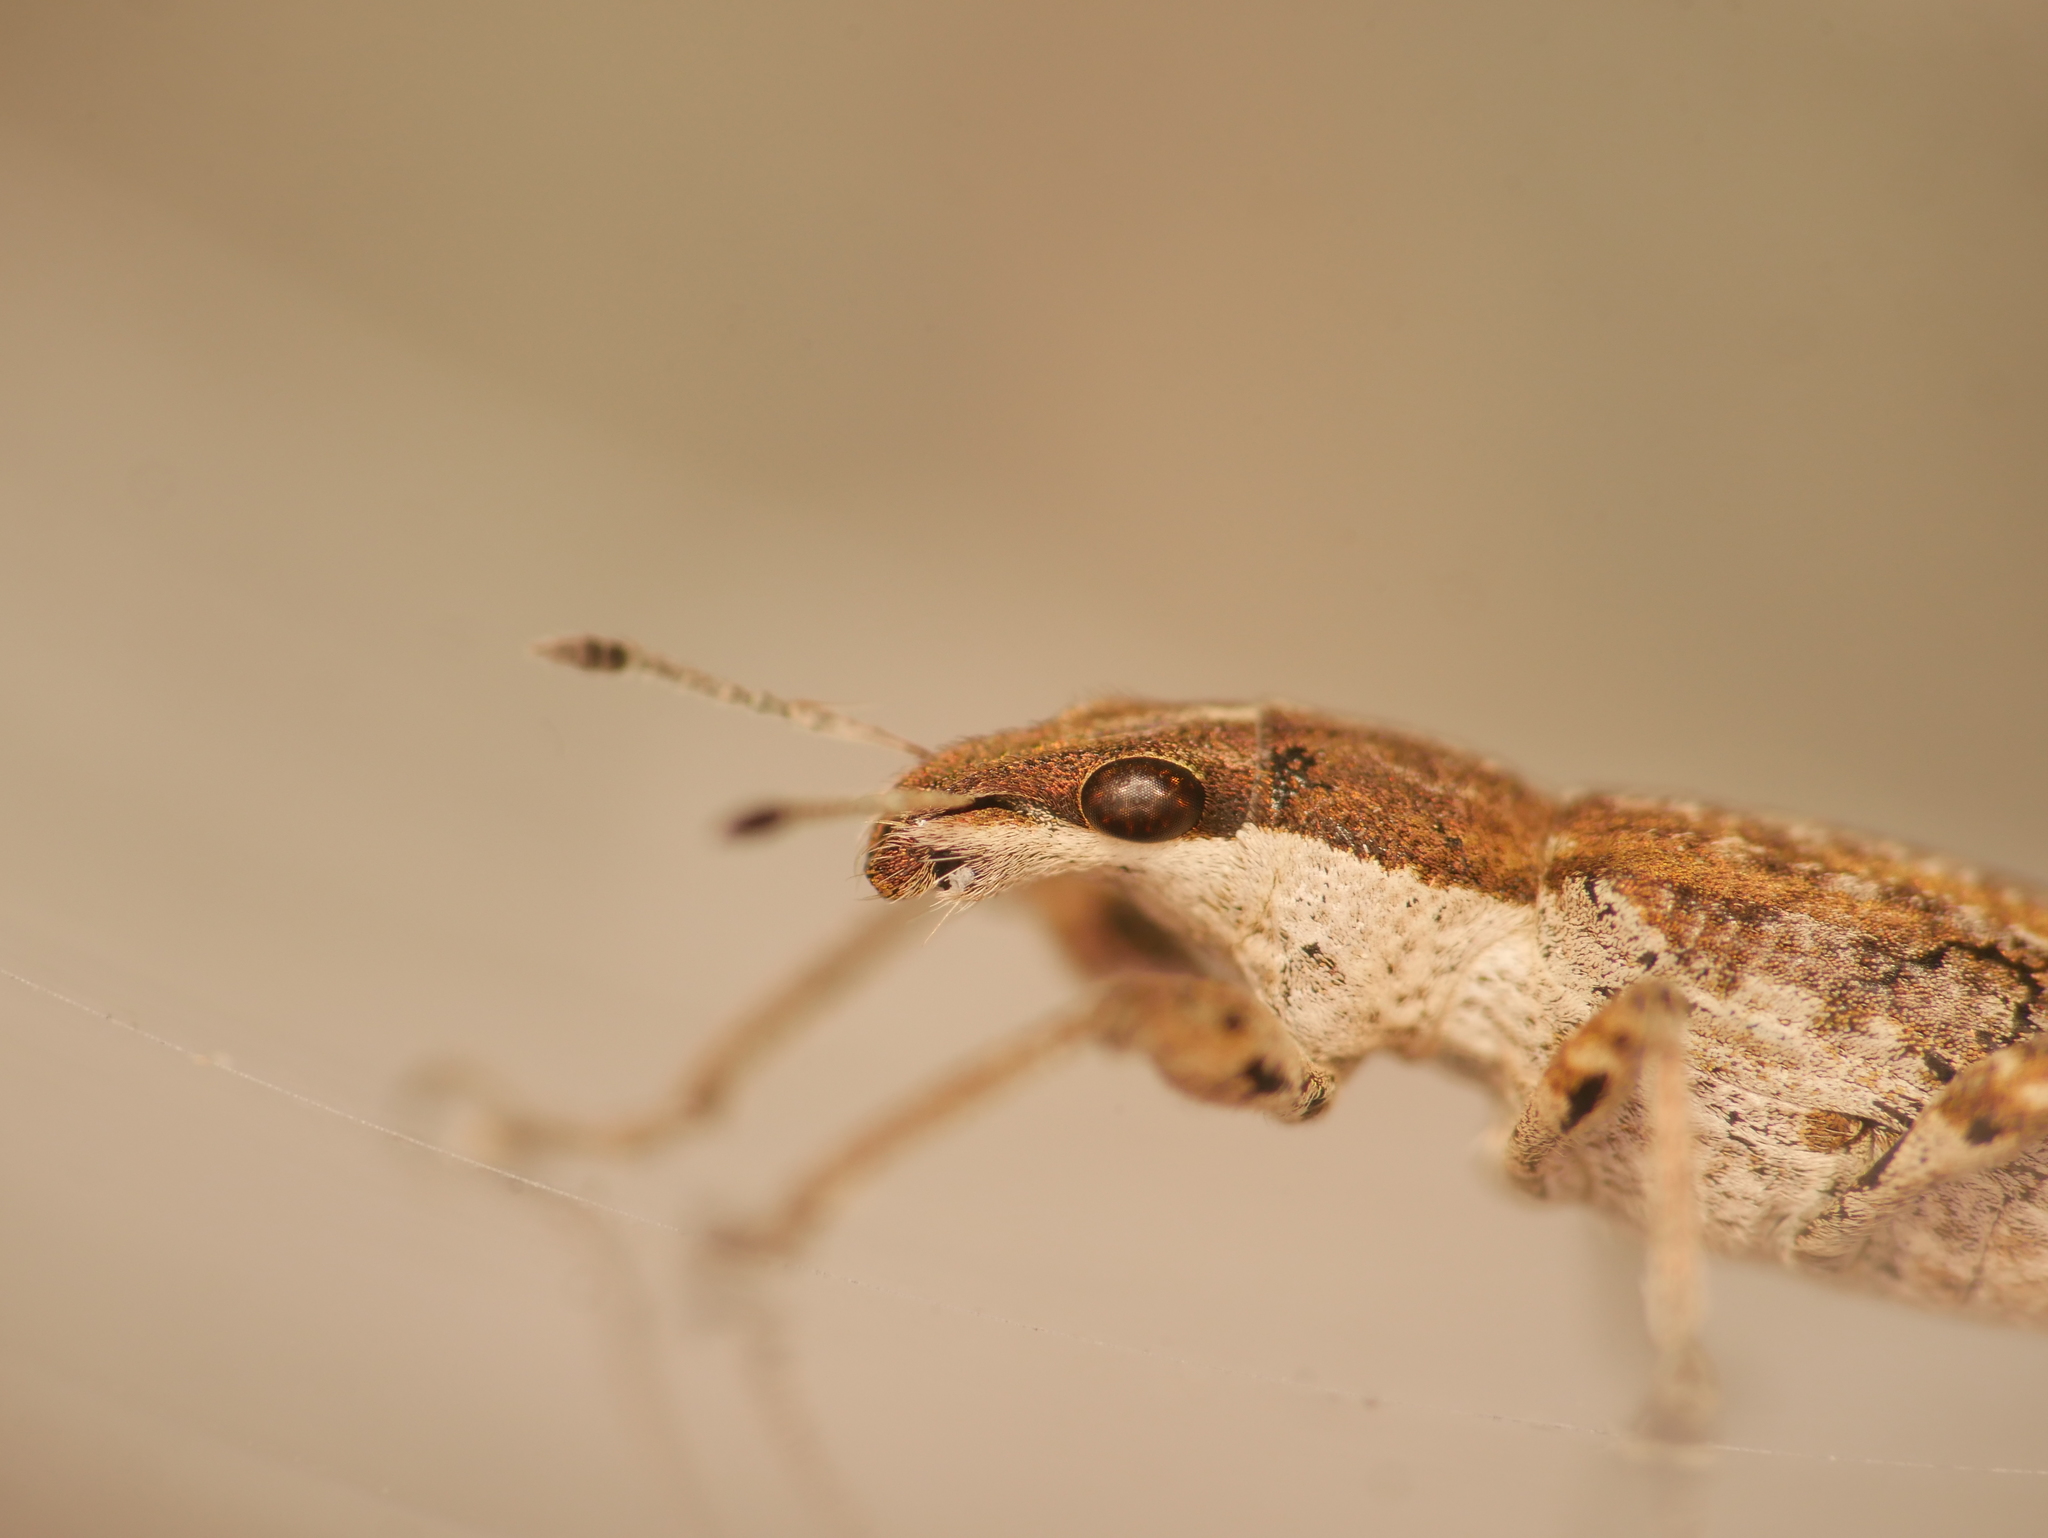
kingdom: Animalia
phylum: Arthropoda
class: Insecta
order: Coleoptera
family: Curculionidae
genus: Charagmus
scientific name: Charagmus gressorius
